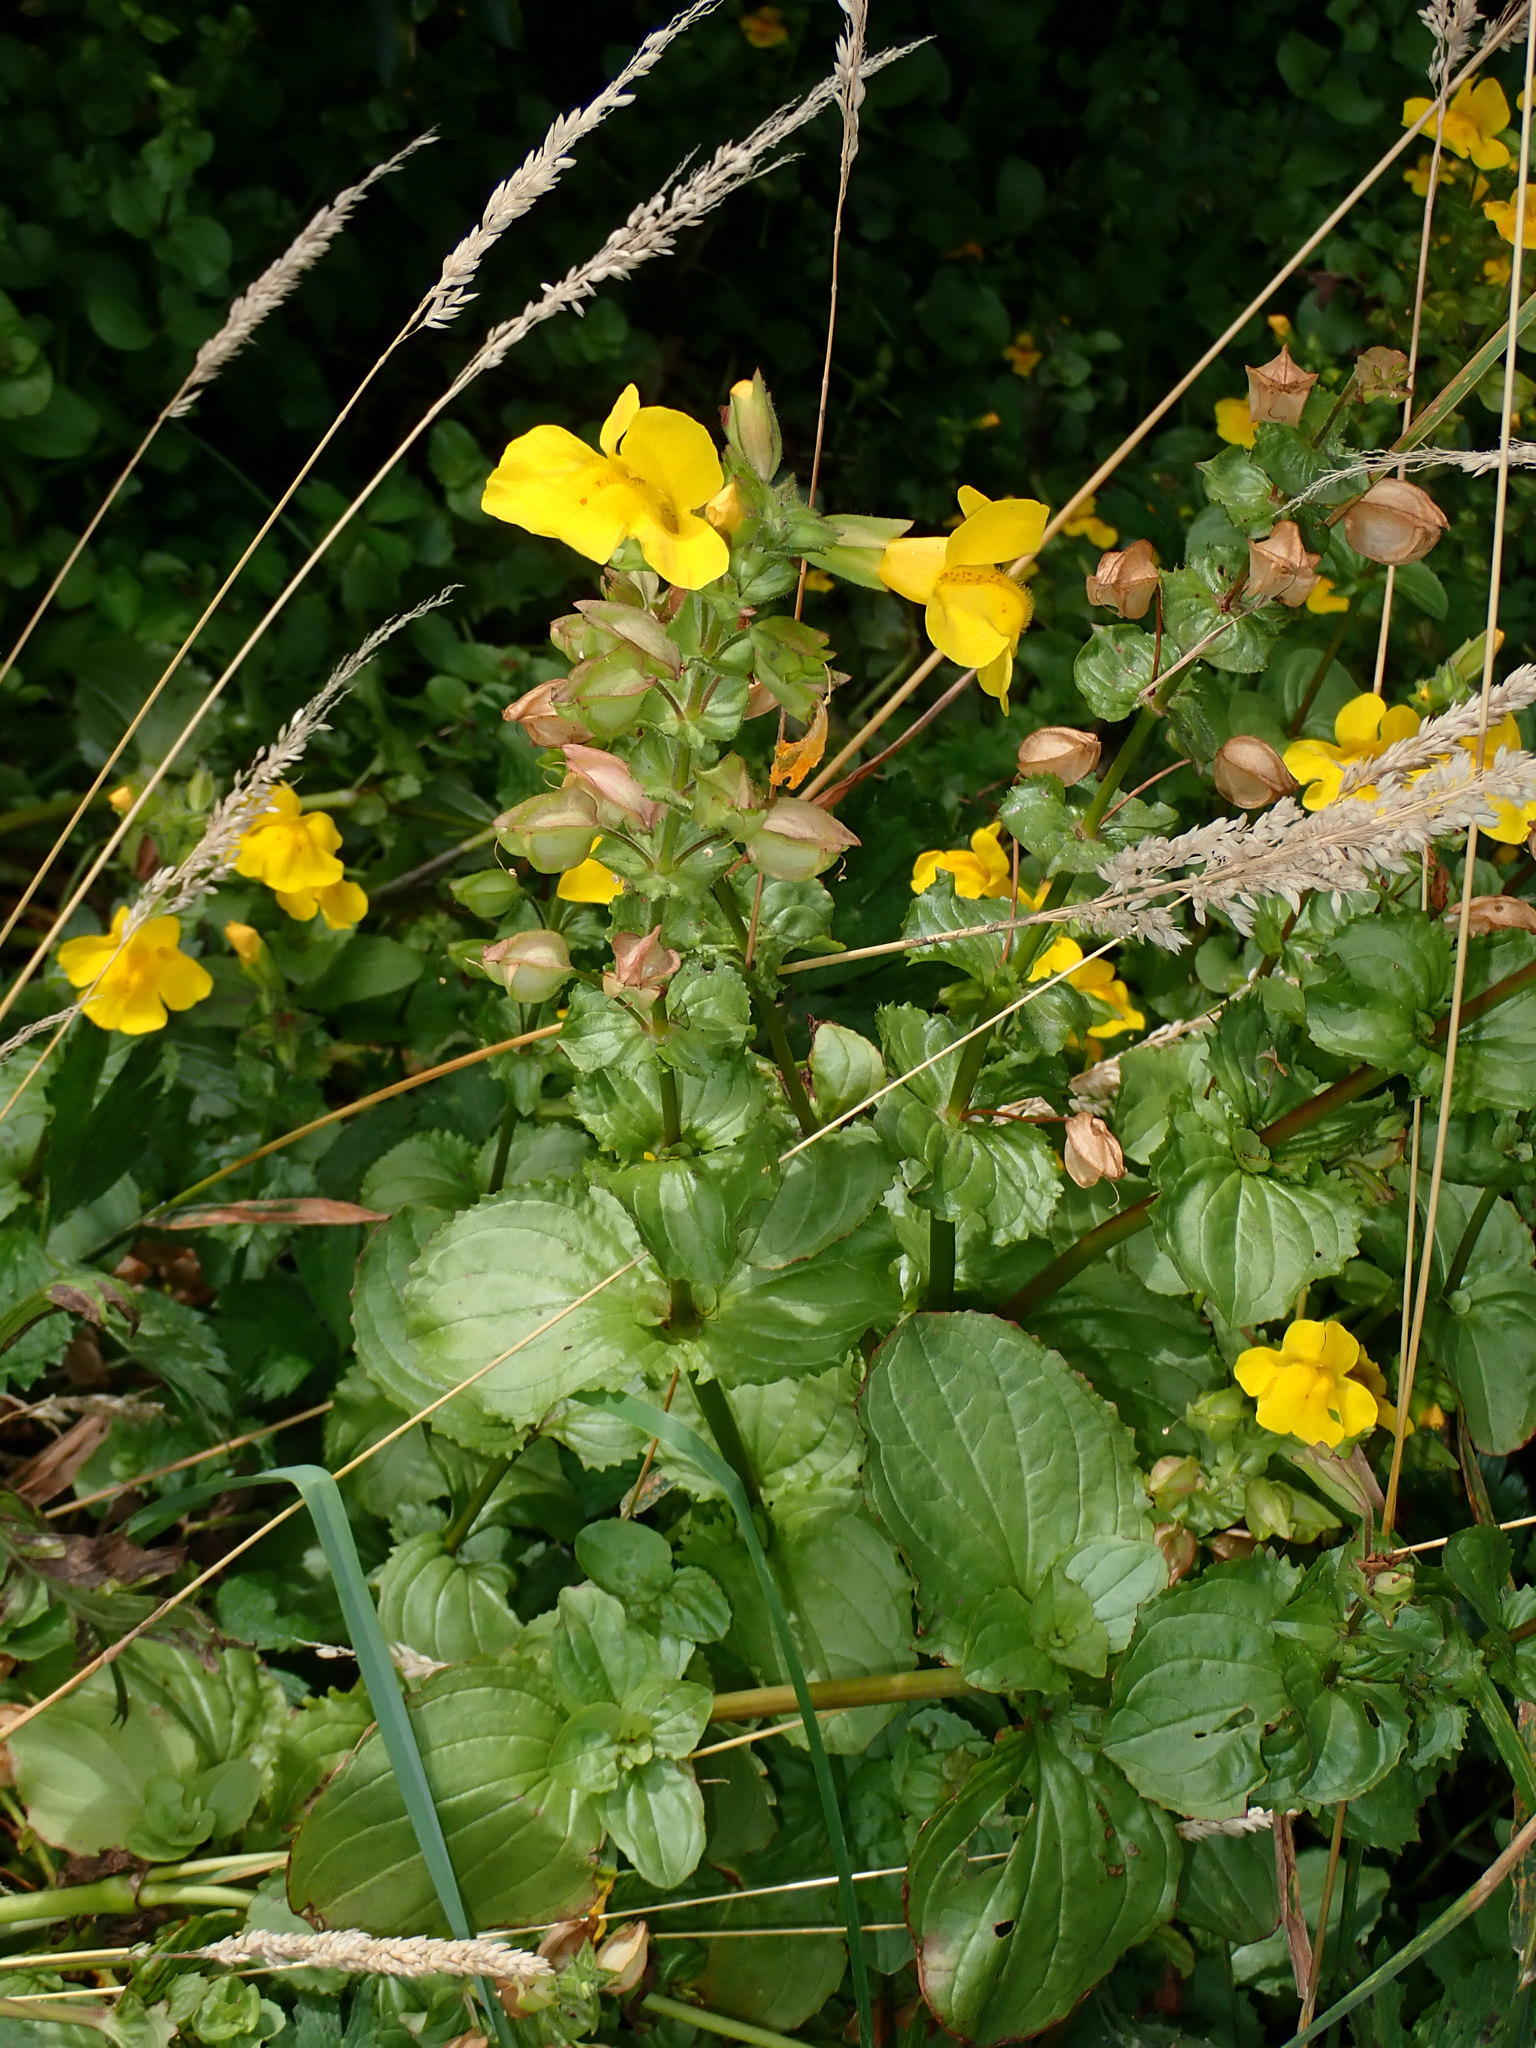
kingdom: Plantae
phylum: Tracheophyta
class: Magnoliopsida
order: Lamiales
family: Phrymaceae
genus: Erythranthe
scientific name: Erythranthe guttata
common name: Monkeyflower
